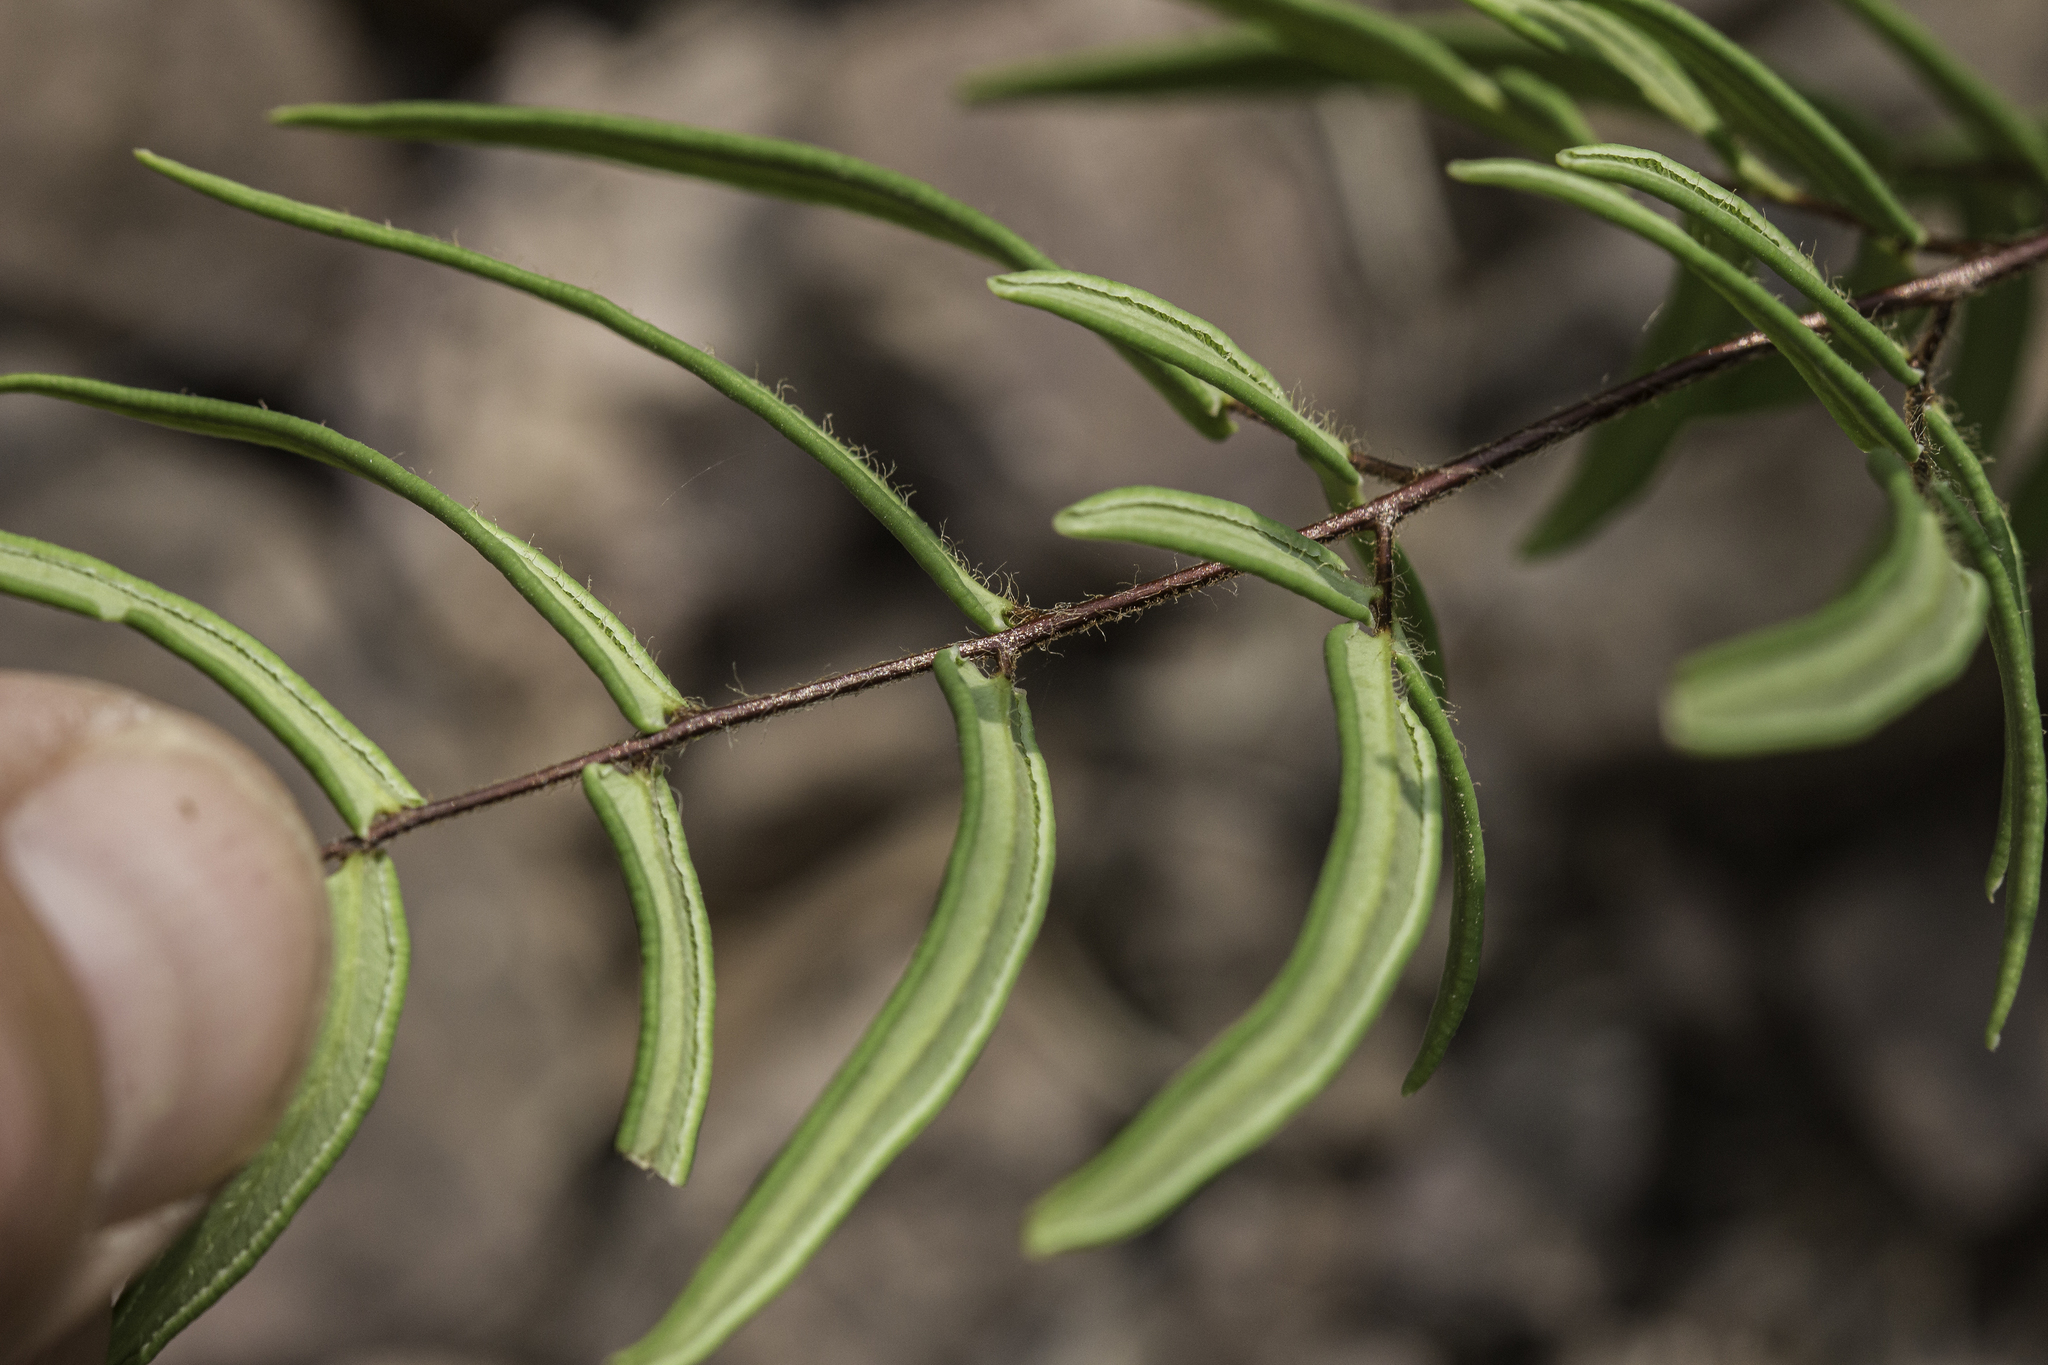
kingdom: Plantae
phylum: Tracheophyta
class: Polypodiopsida
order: Polypodiales
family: Pteridaceae
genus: Pellaea
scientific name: Pellaea atropurpurea
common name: Hairy cliffbrake
